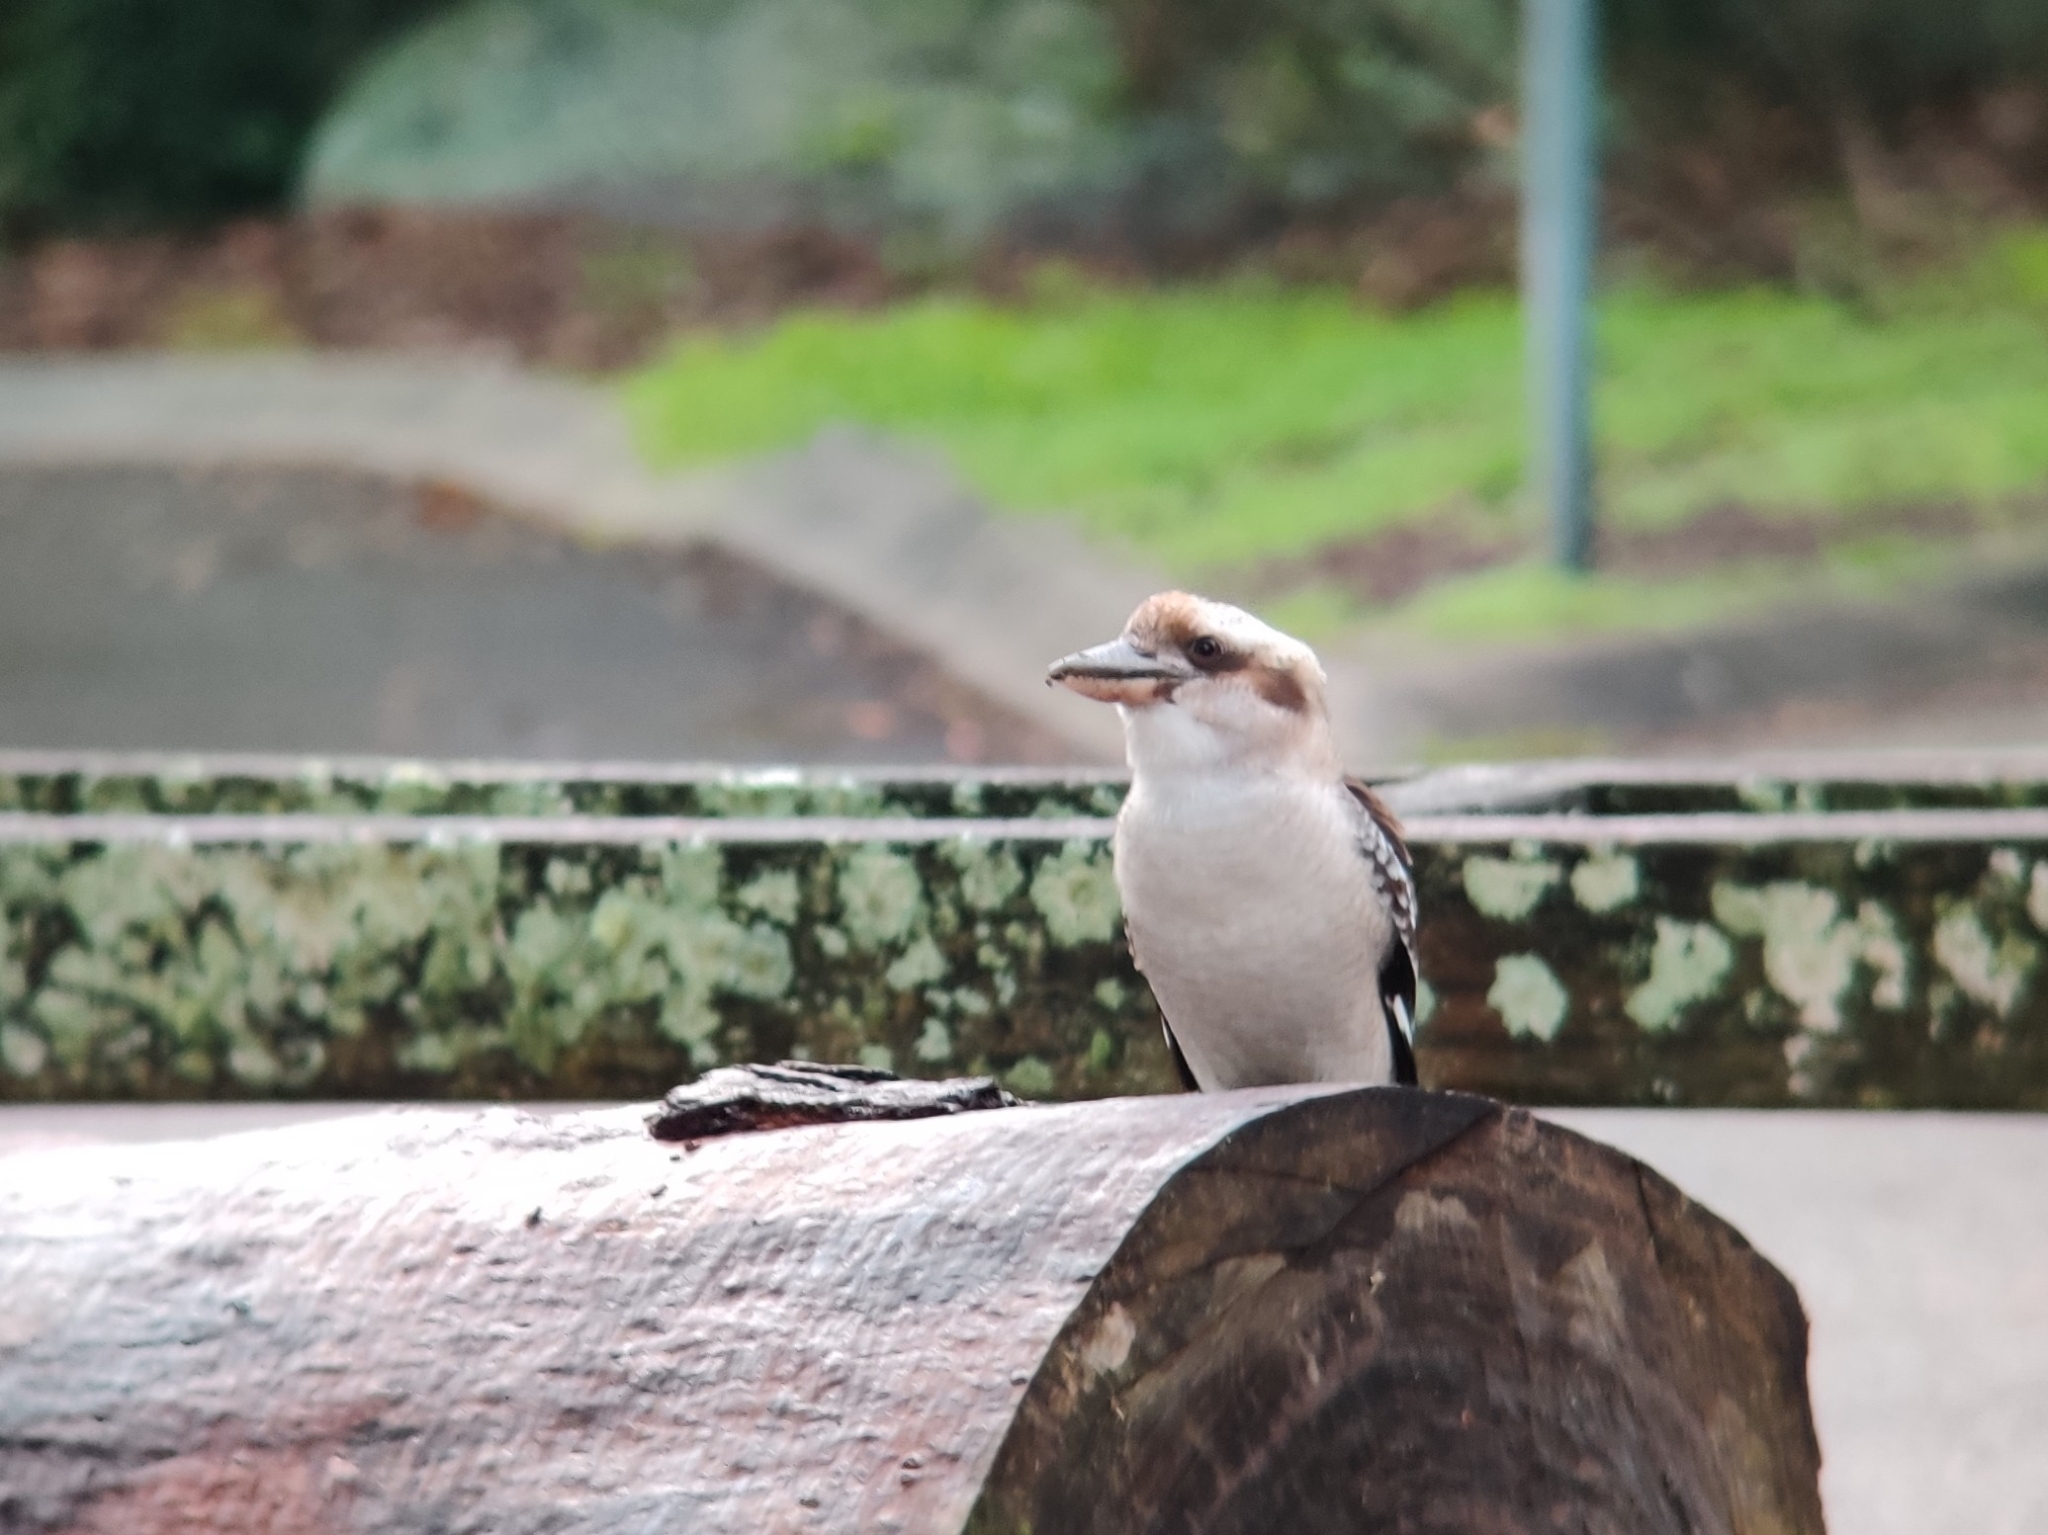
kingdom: Animalia
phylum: Chordata
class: Aves
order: Coraciiformes
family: Alcedinidae
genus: Dacelo
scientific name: Dacelo novaeguineae
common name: Laughing kookaburra
